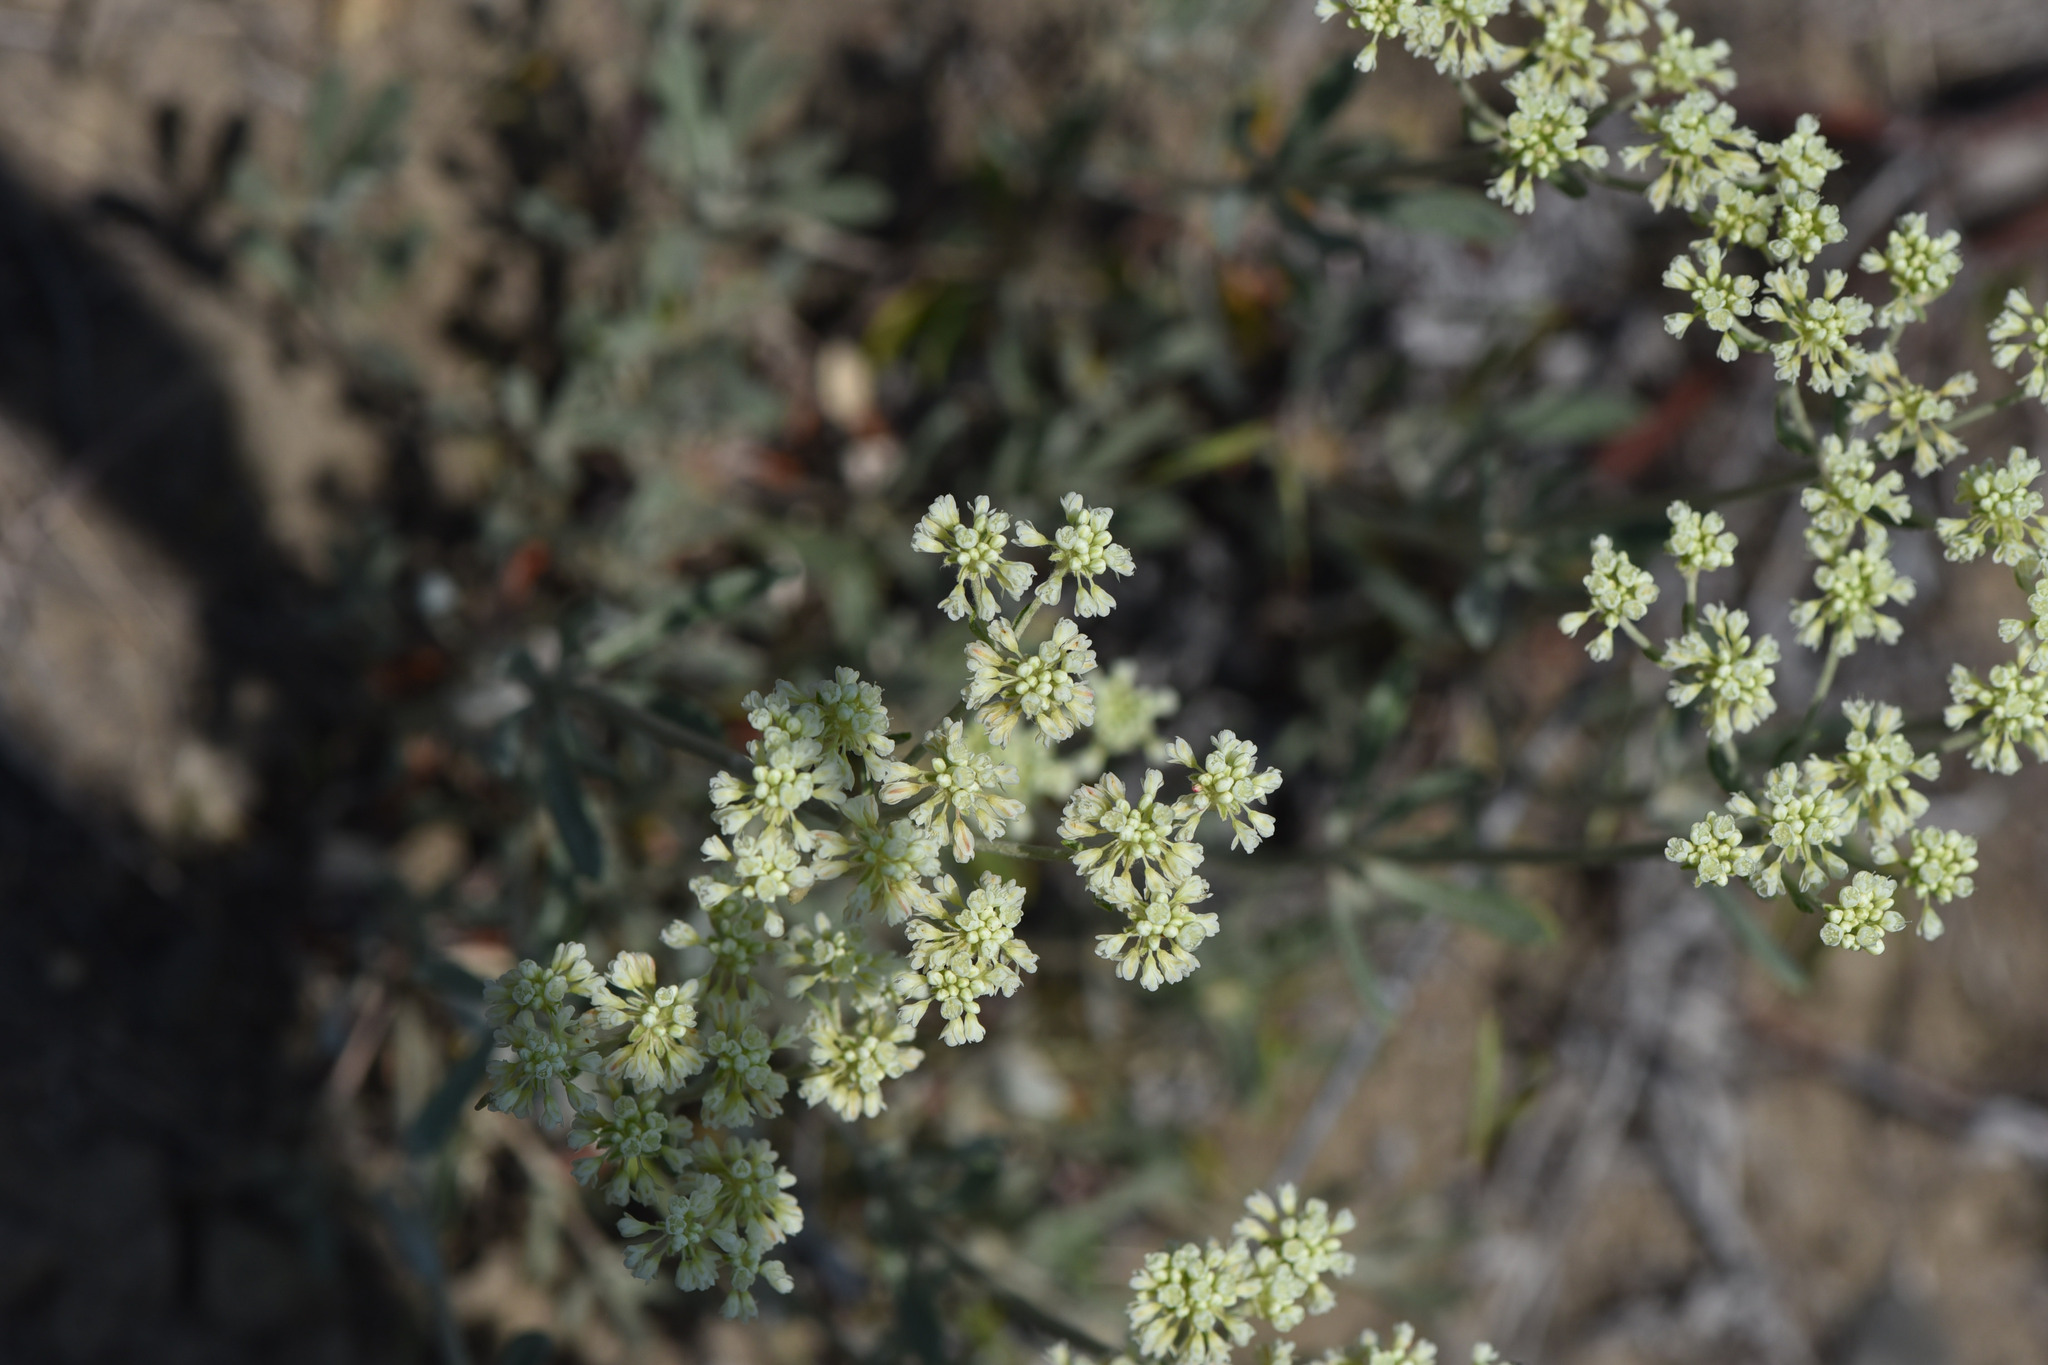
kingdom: Plantae
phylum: Tracheophyta
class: Magnoliopsida
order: Caryophyllales
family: Polygonaceae
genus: Eriogonum
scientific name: Eriogonum heracleoides
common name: Wyeth's buckwheat
